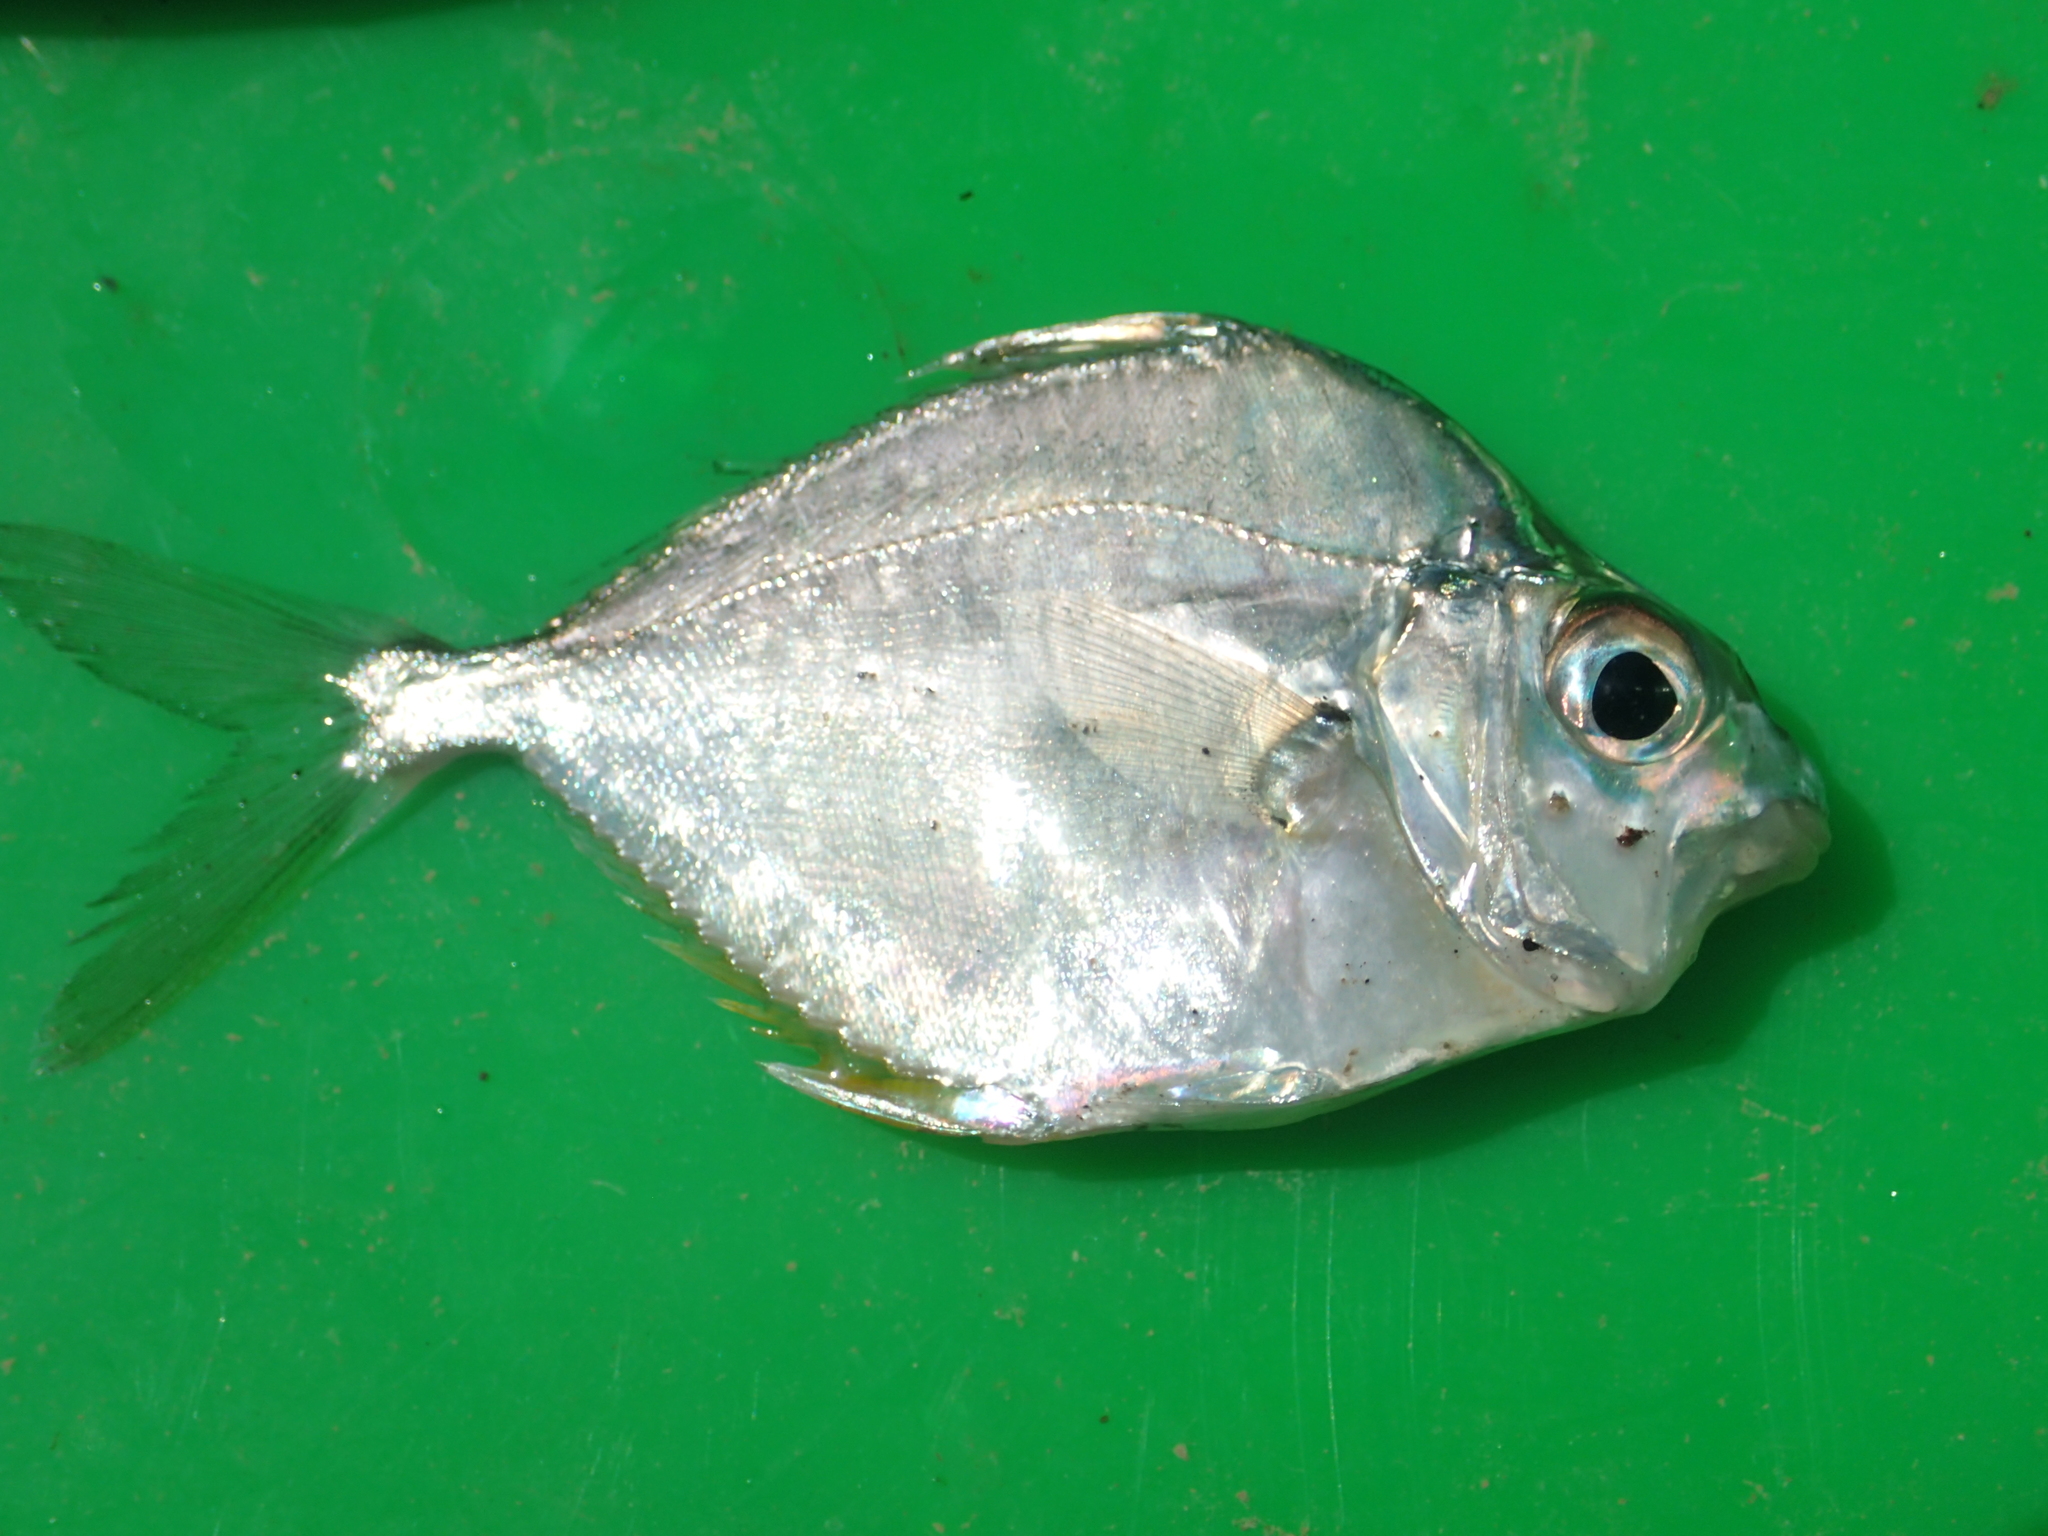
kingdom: Animalia
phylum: Chordata
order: Perciformes
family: Leiognathidae
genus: Leiognathus
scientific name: Leiognathus equulus
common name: Common ponyfish
